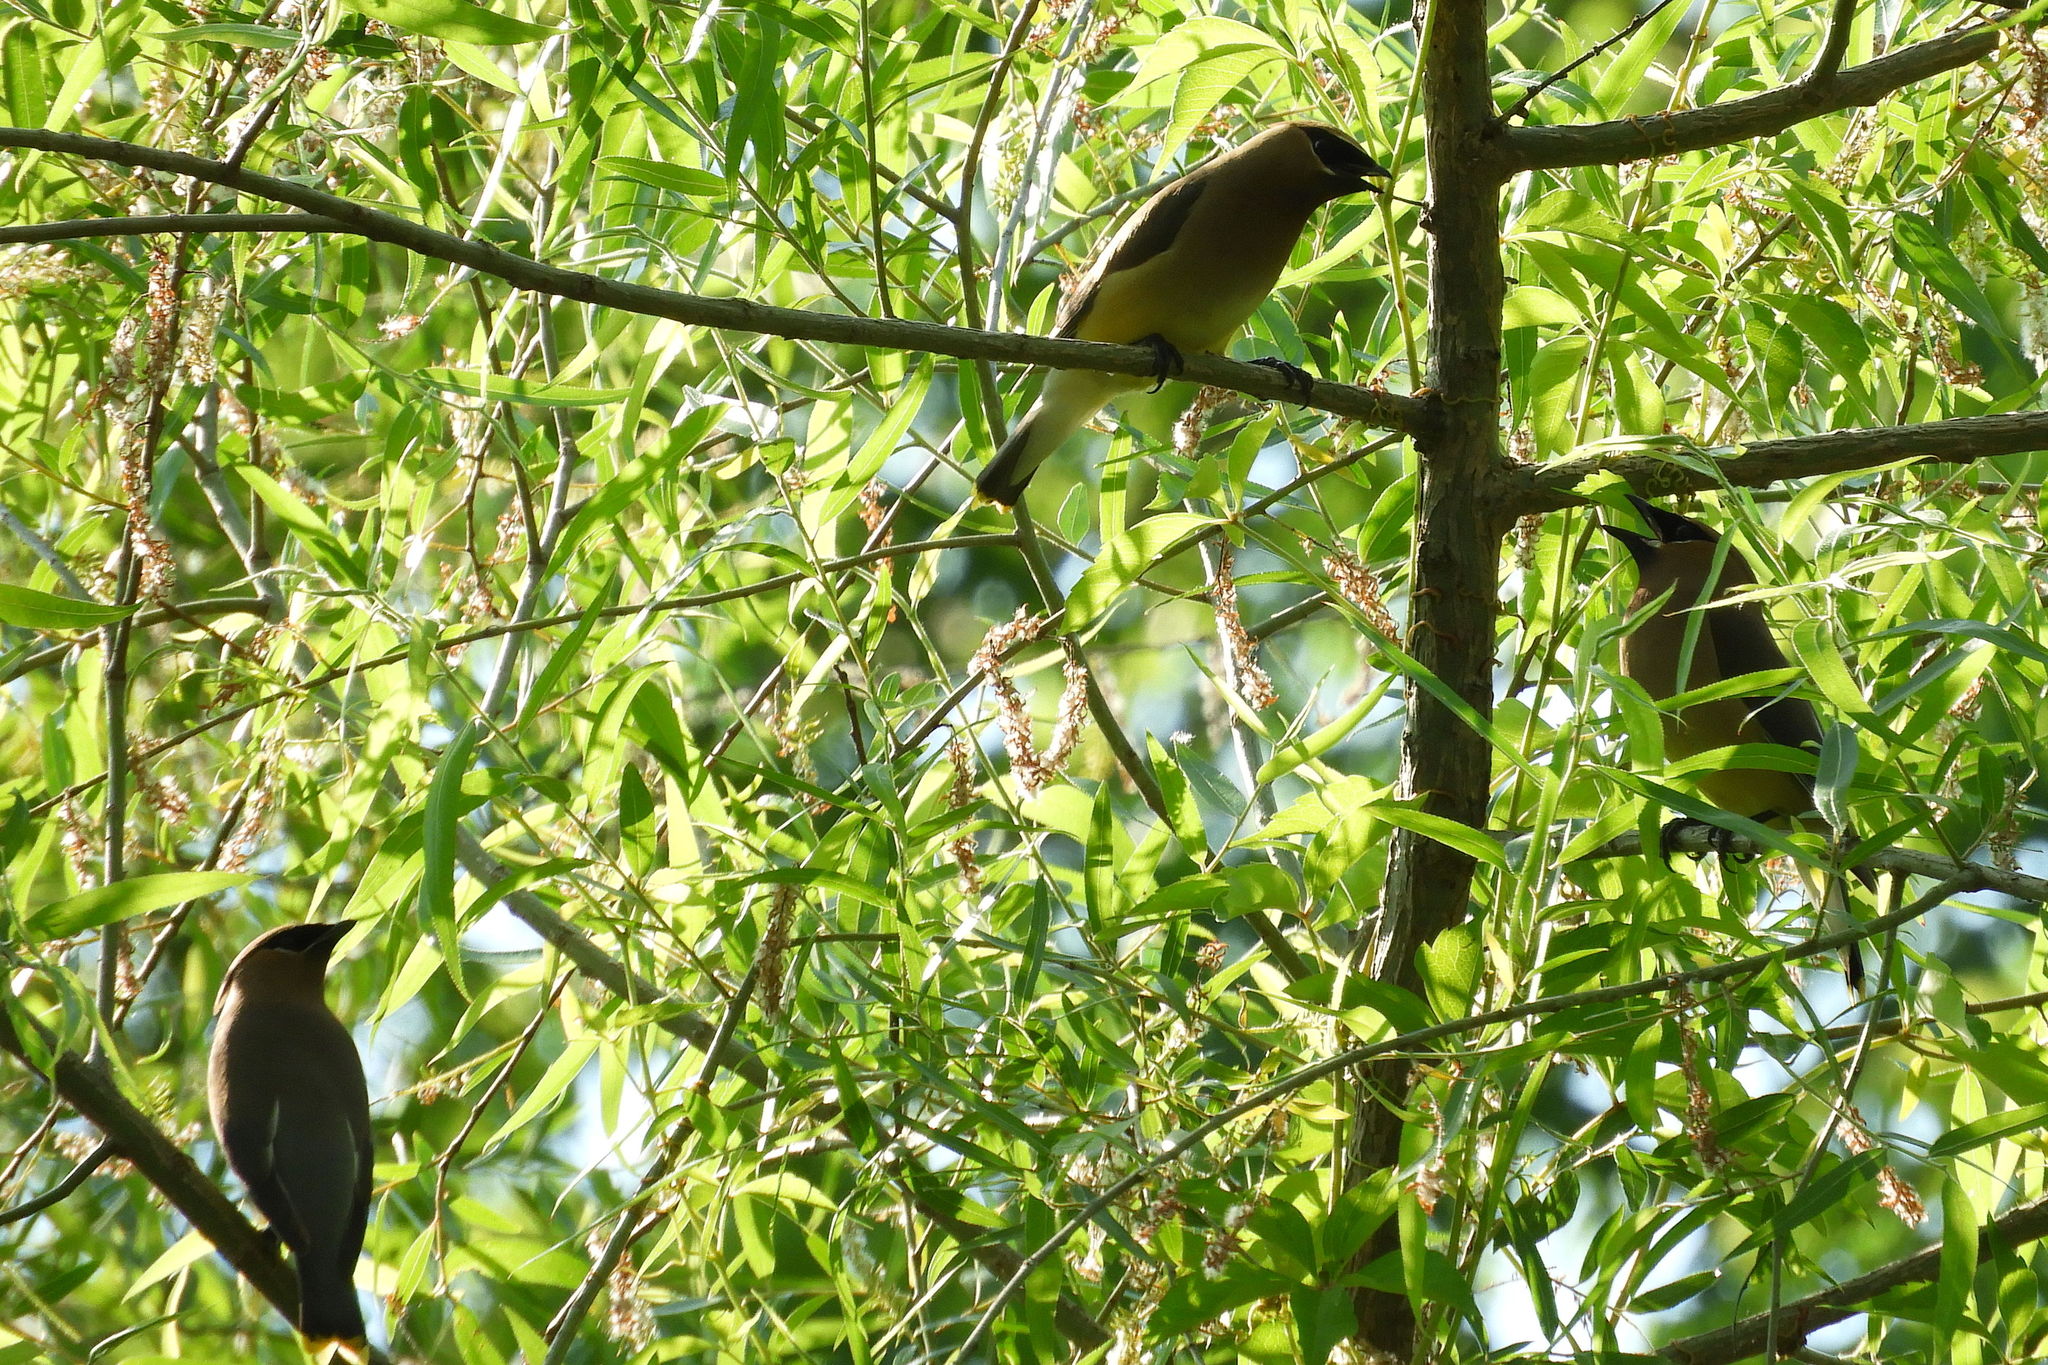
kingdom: Animalia
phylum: Chordata
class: Aves
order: Passeriformes
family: Bombycillidae
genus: Bombycilla
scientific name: Bombycilla cedrorum
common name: Cedar waxwing
